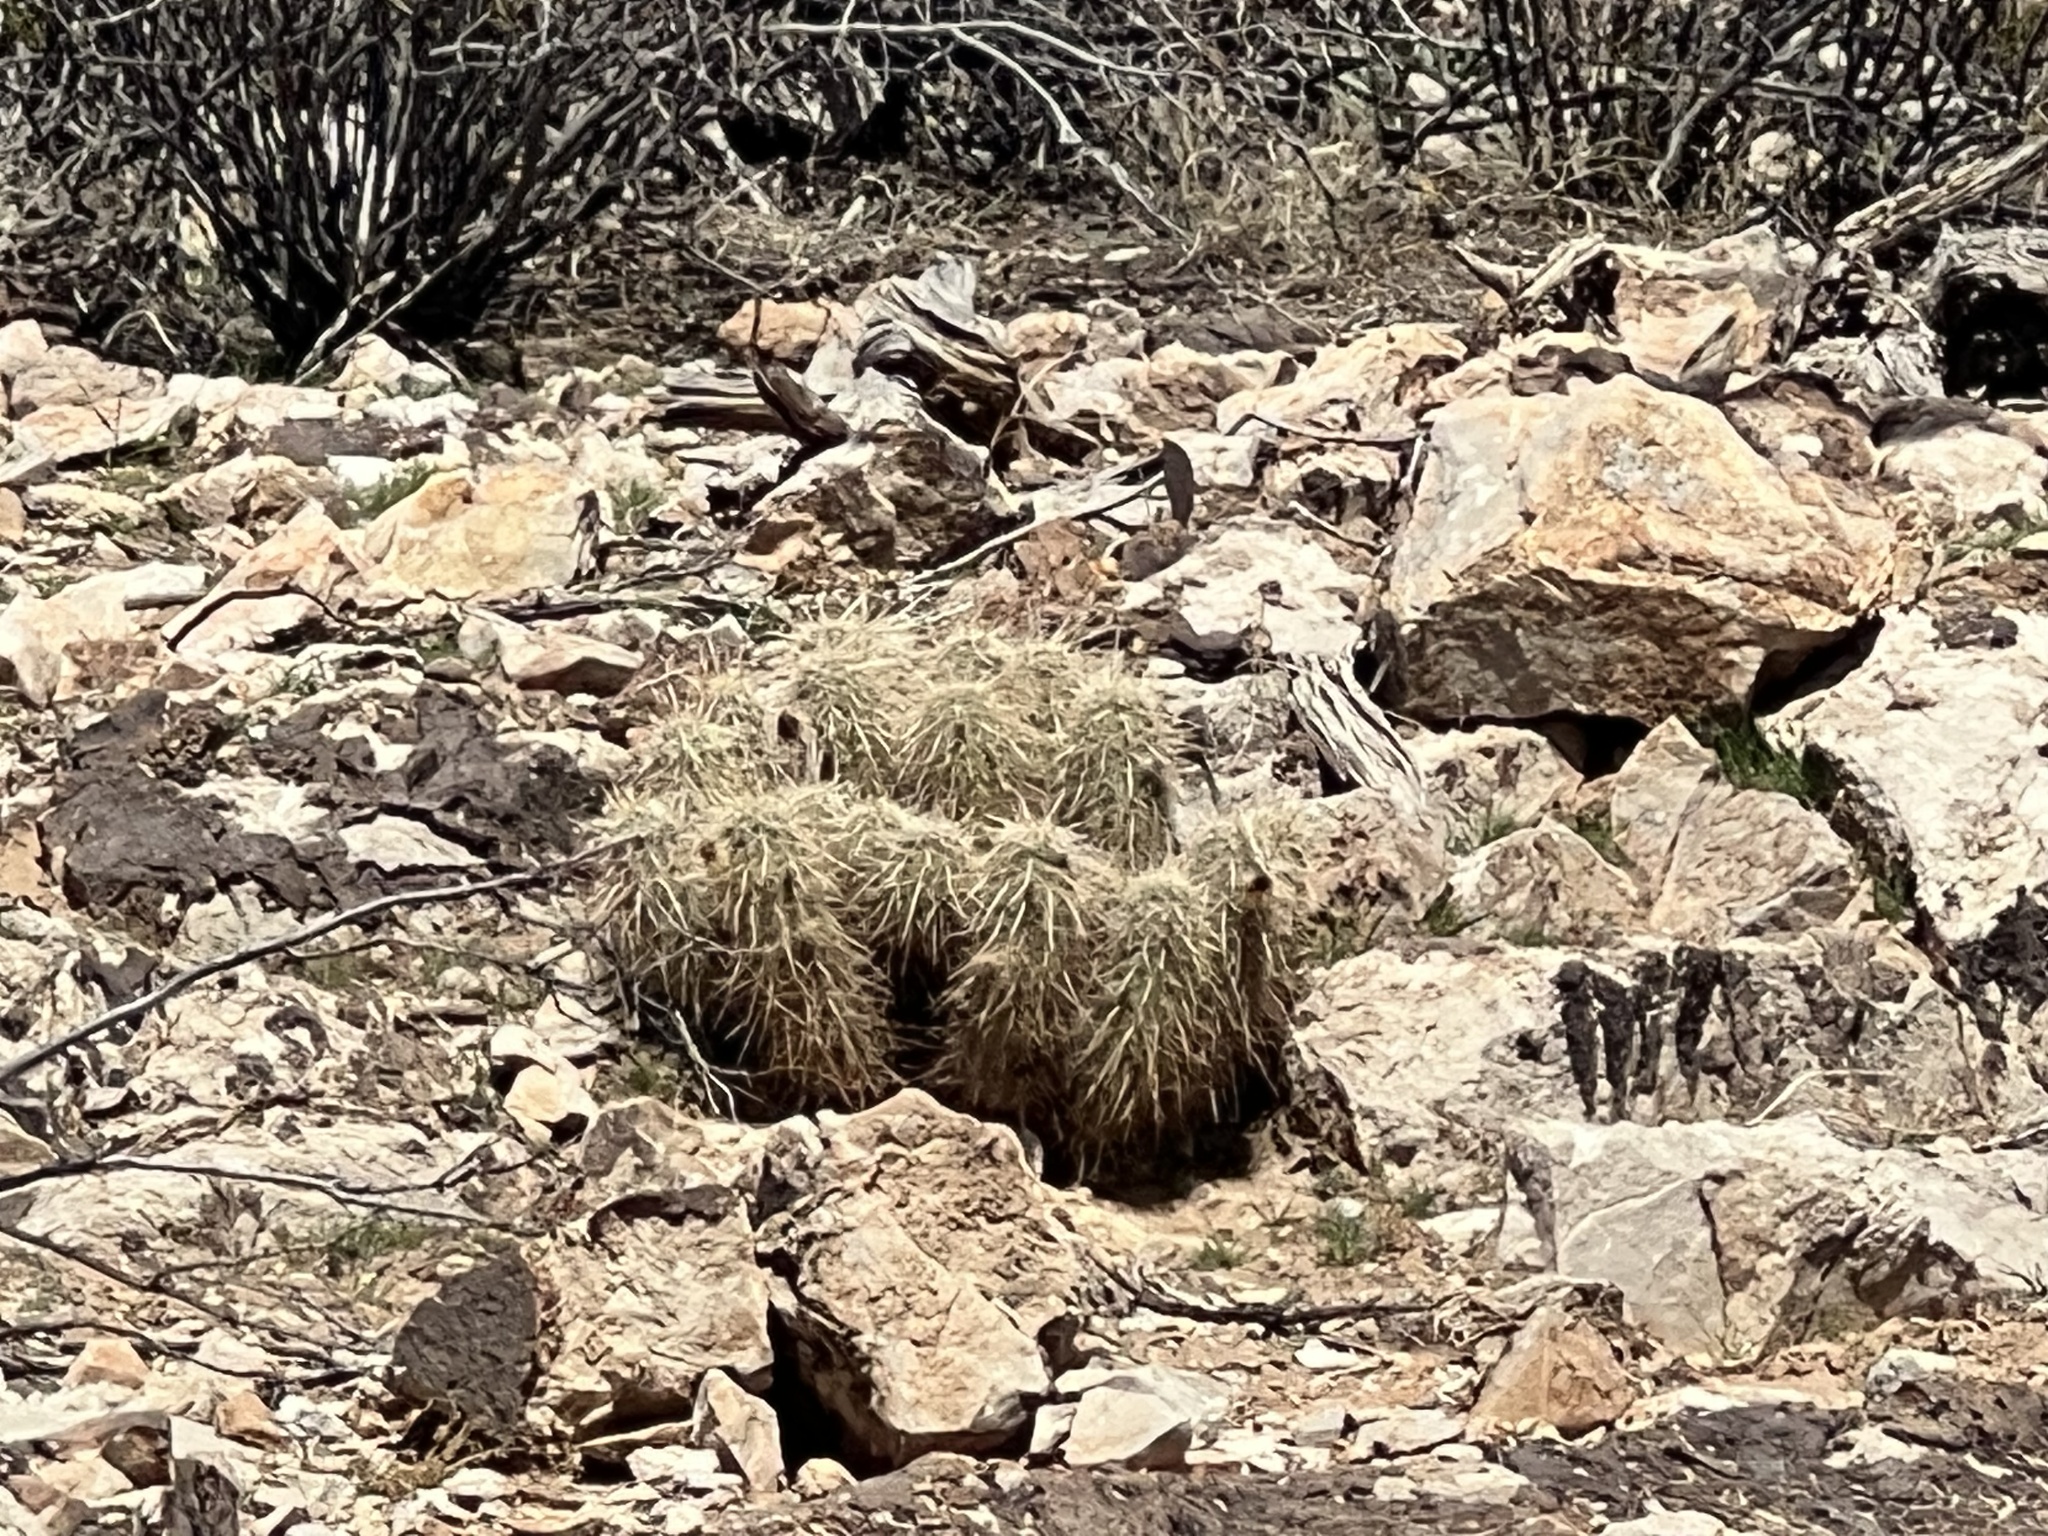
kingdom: Plantae
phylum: Tracheophyta
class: Magnoliopsida
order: Caryophyllales
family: Cactaceae
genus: Echinocereus
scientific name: Echinocereus engelmannii
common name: Engelmann's hedgehog cactus
